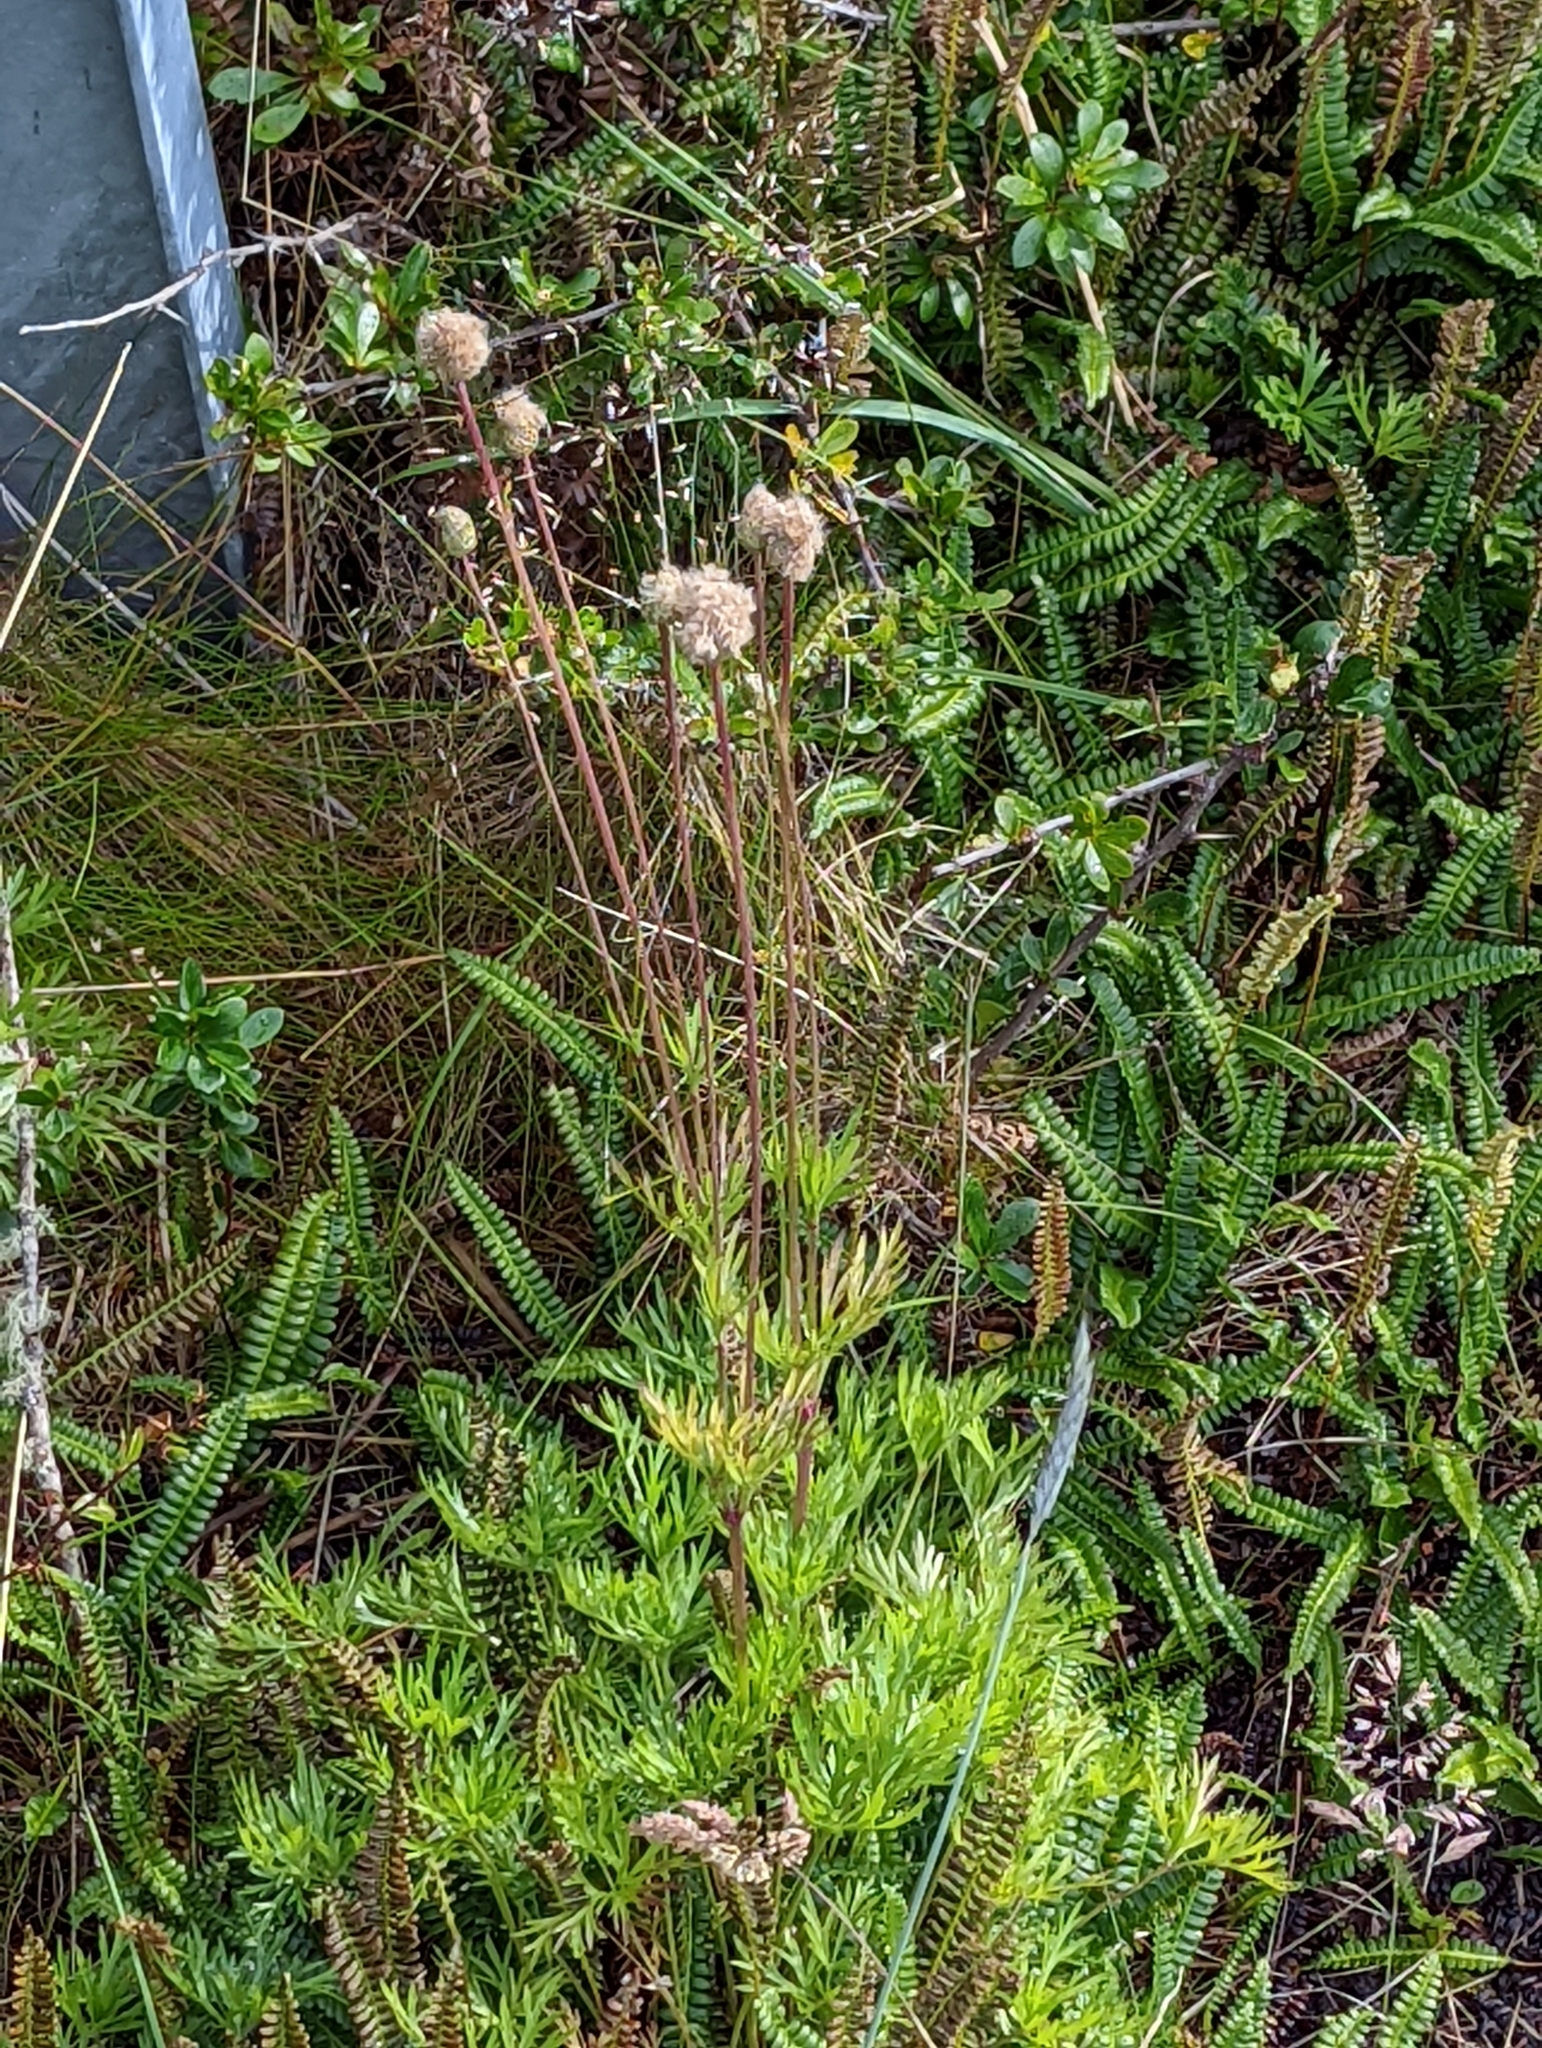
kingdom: Plantae
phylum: Tracheophyta
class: Magnoliopsida
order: Ranunculales
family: Ranunculaceae
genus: Anemone
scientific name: Anemone multifida
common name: Bird's-foot anemone
